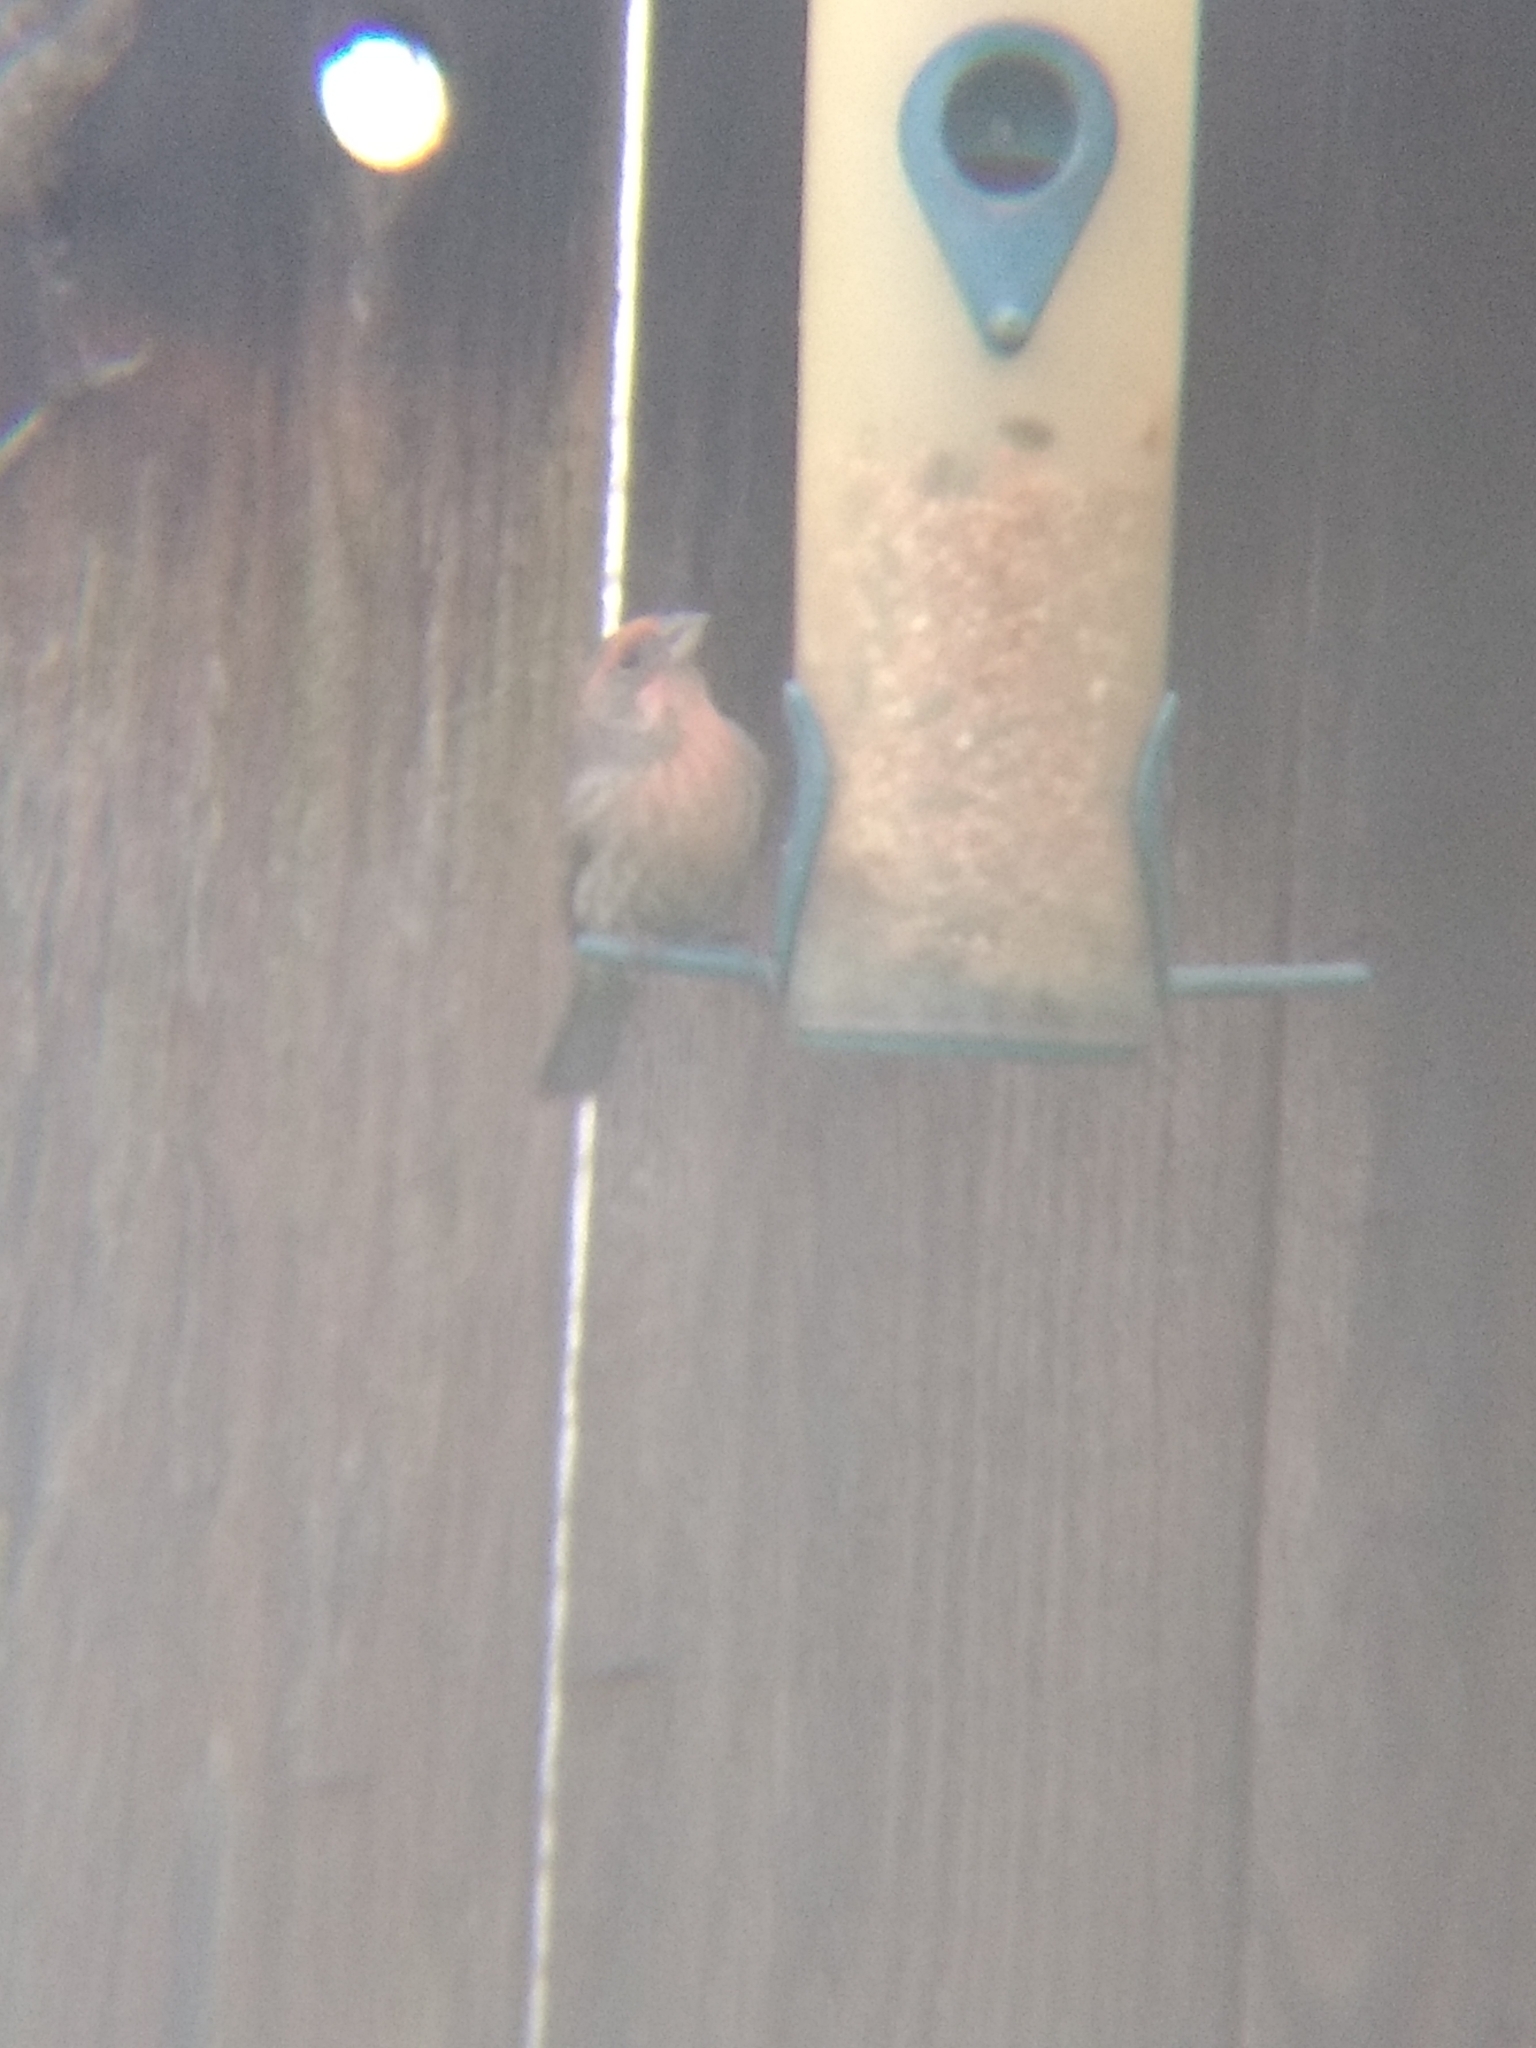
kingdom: Animalia
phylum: Chordata
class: Aves
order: Passeriformes
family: Fringillidae
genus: Haemorhous
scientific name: Haemorhous mexicanus
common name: House finch
